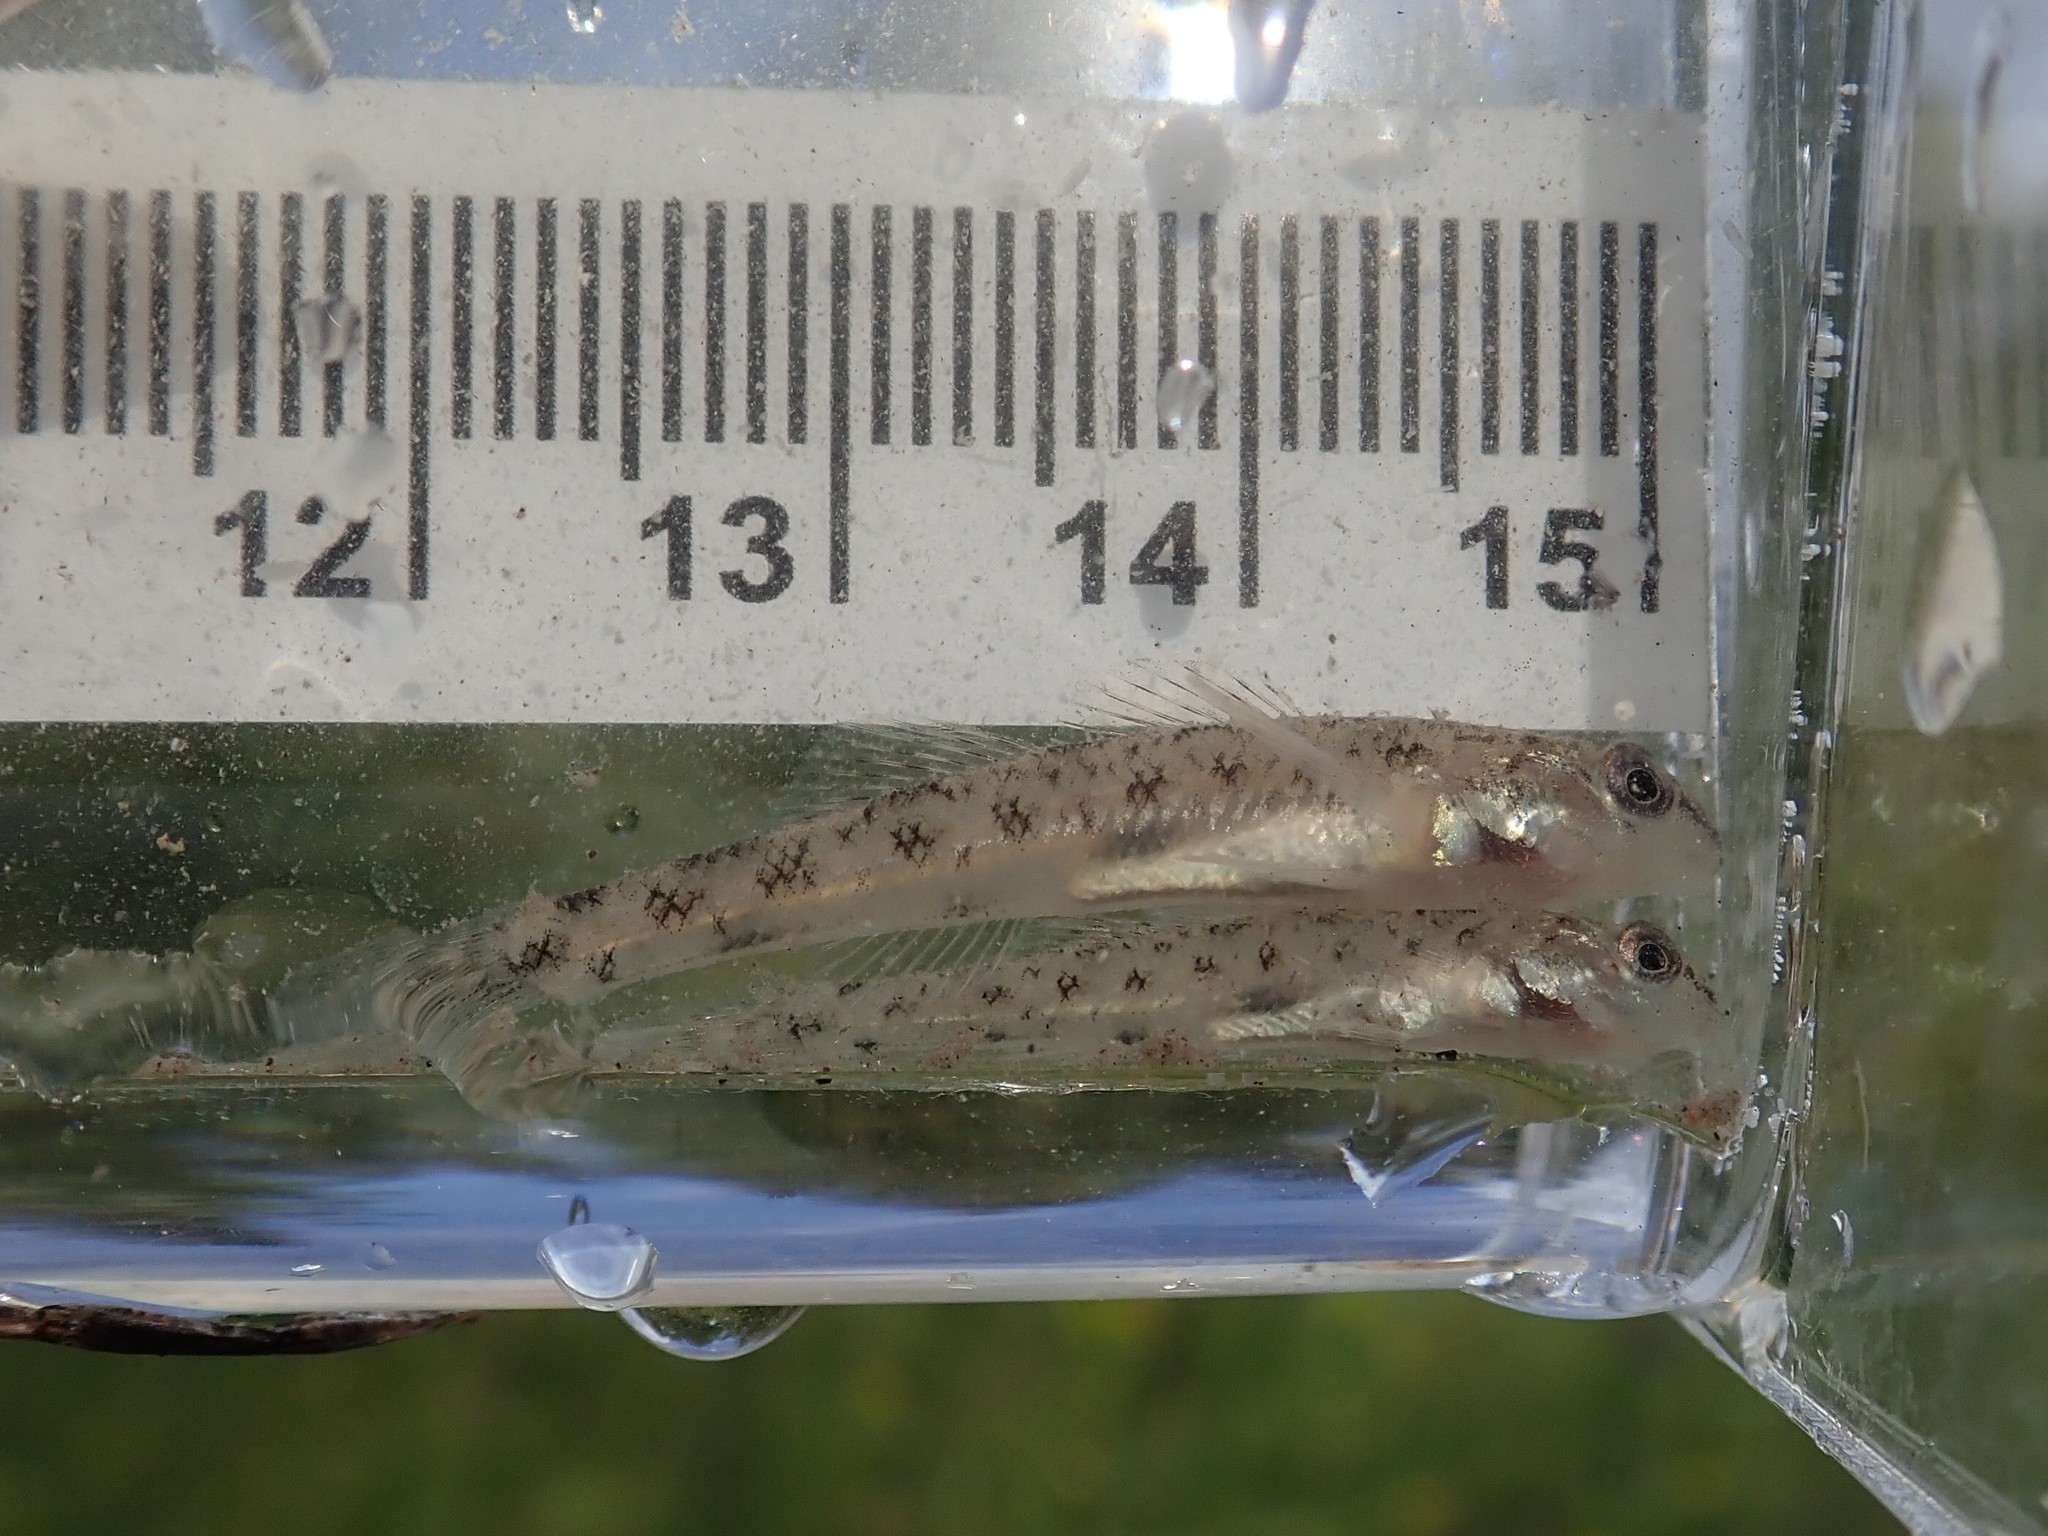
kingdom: Animalia
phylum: Chordata
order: Perciformes
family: Percidae
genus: Etheostoma
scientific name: Etheostoma nigrum
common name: Johnny darter
